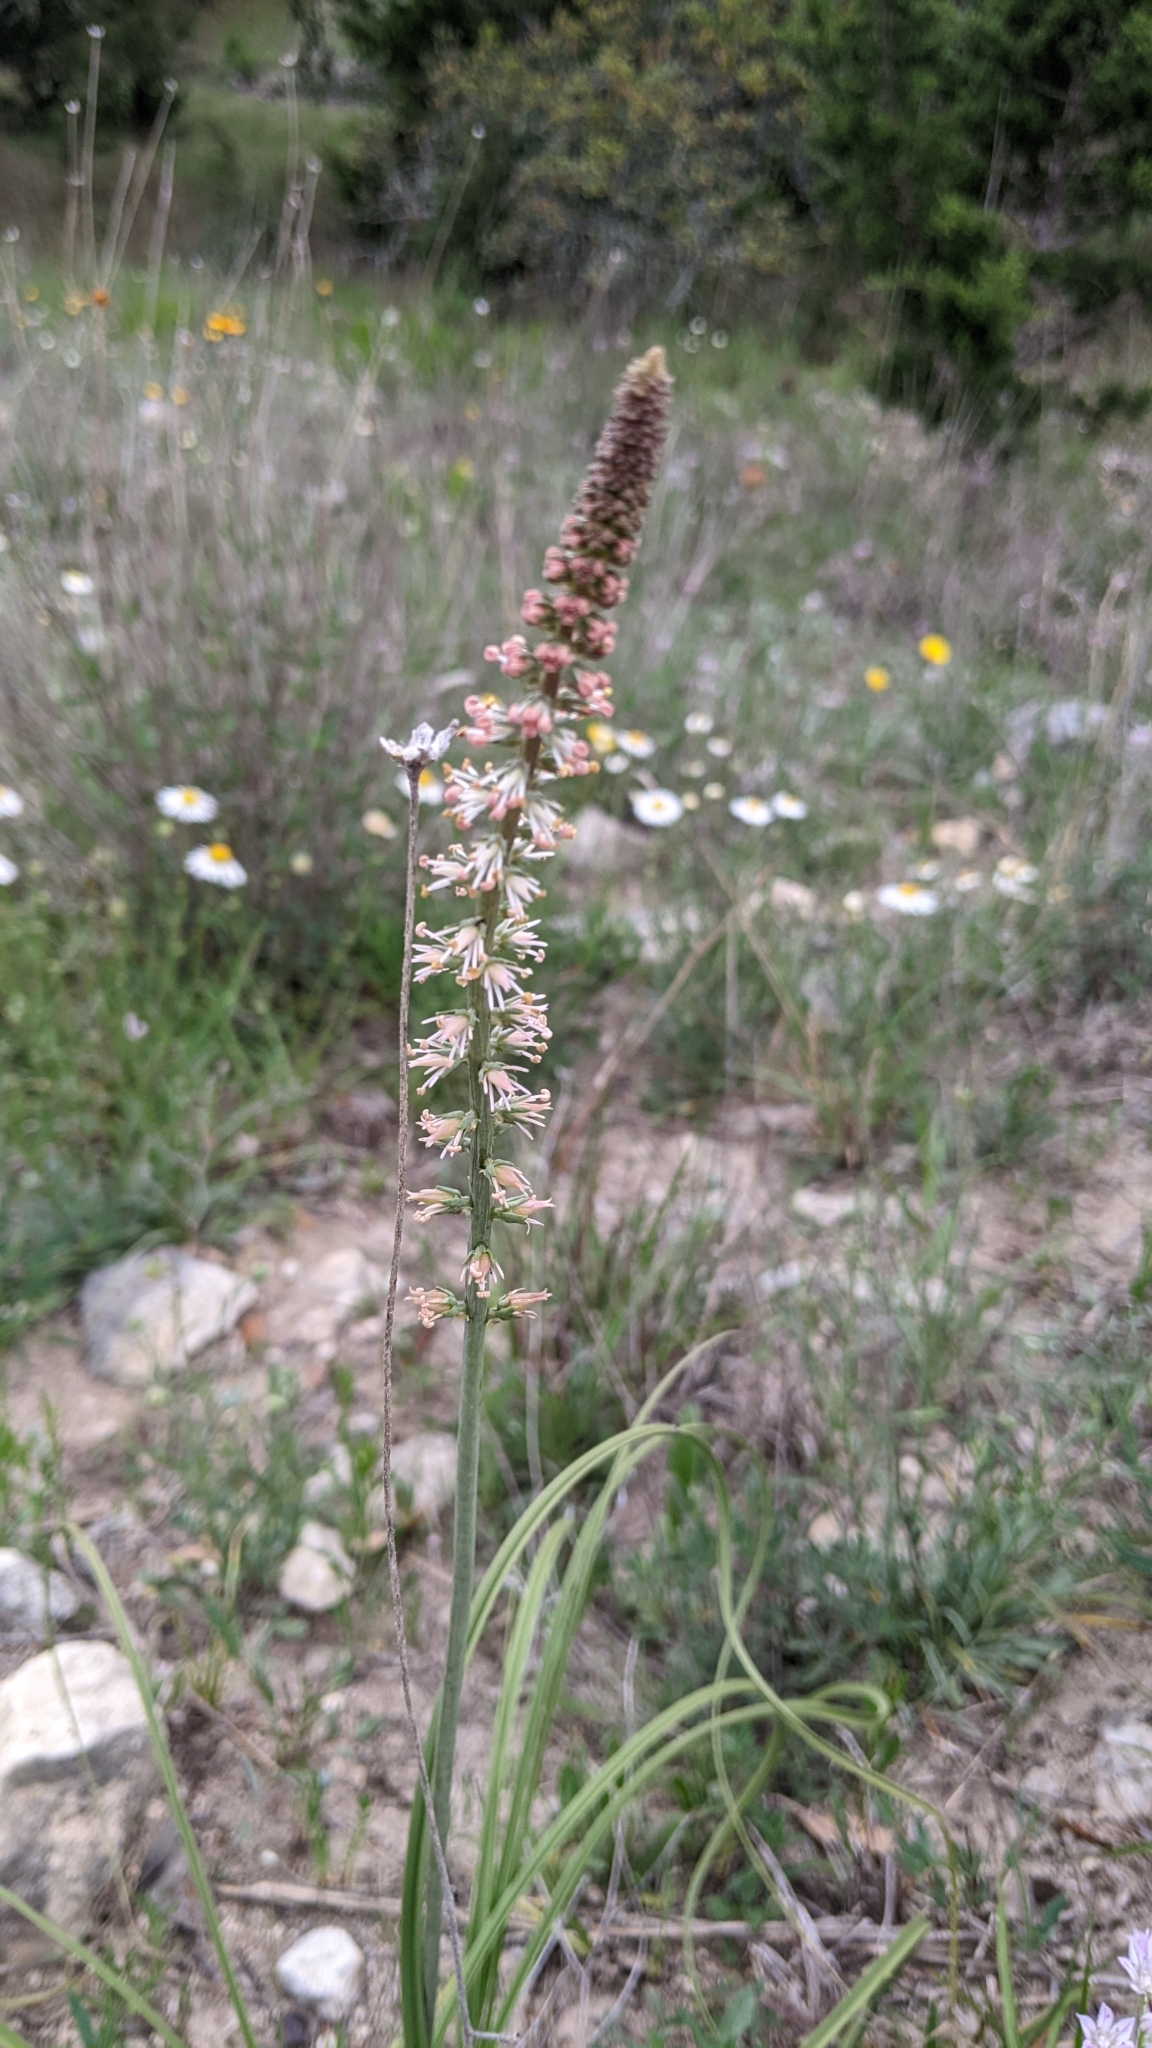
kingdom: Plantae
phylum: Tracheophyta
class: Liliopsida
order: Liliales
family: Melanthiaceae
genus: Schoenocaulon
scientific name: Schoenocaulon texanum
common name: Texas feather-shank
